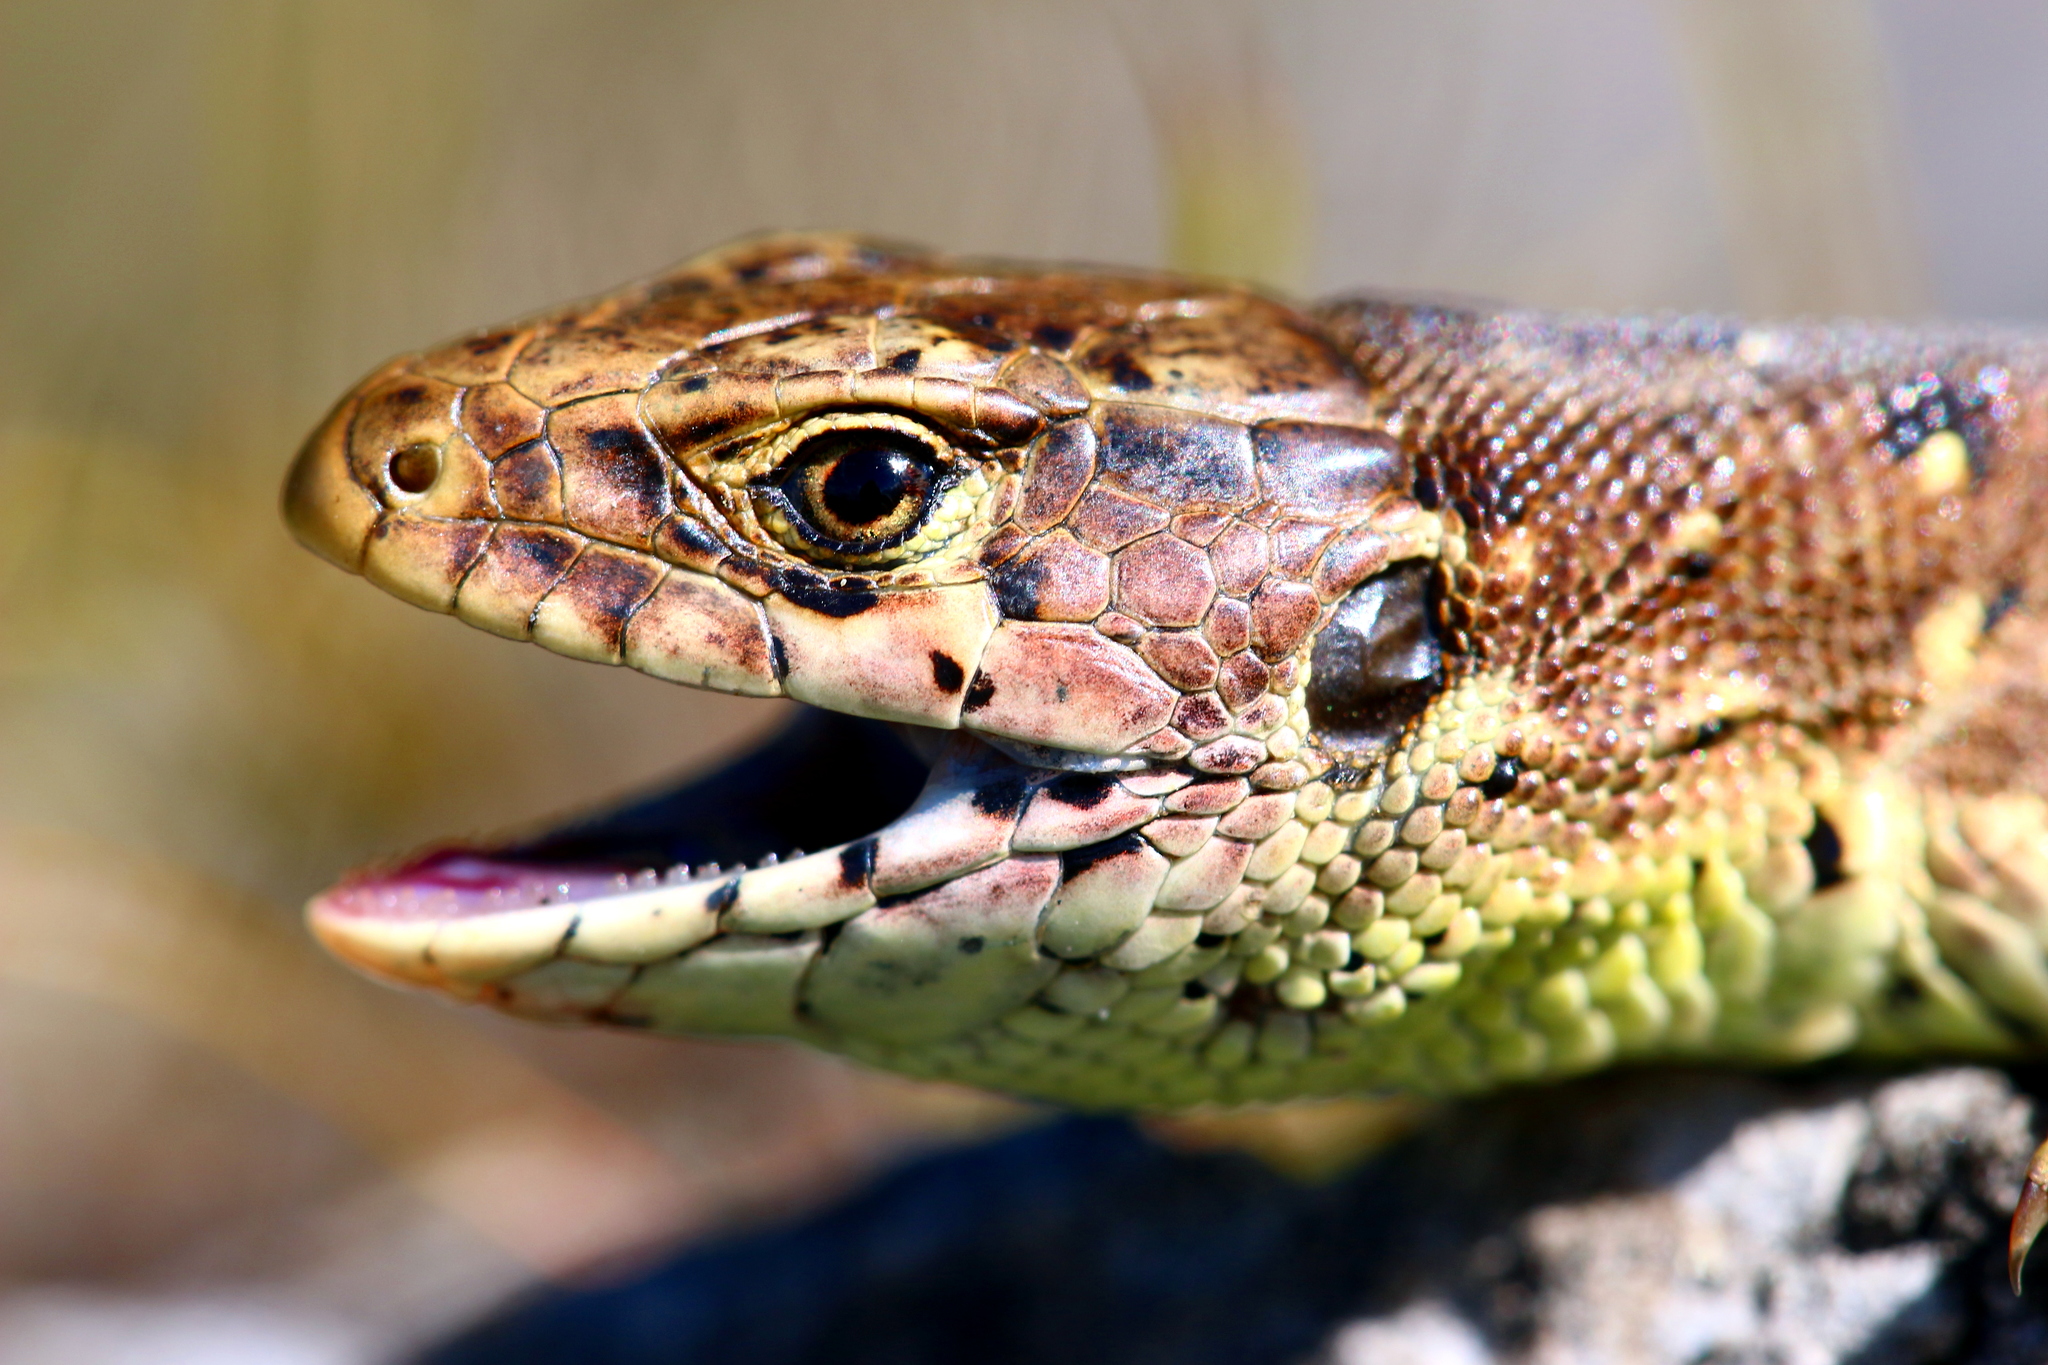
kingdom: Animalia
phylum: Chordata
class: Squamata
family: Lacertidae
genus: Lacerta
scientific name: Lacerta agilis
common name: Sand lizard
